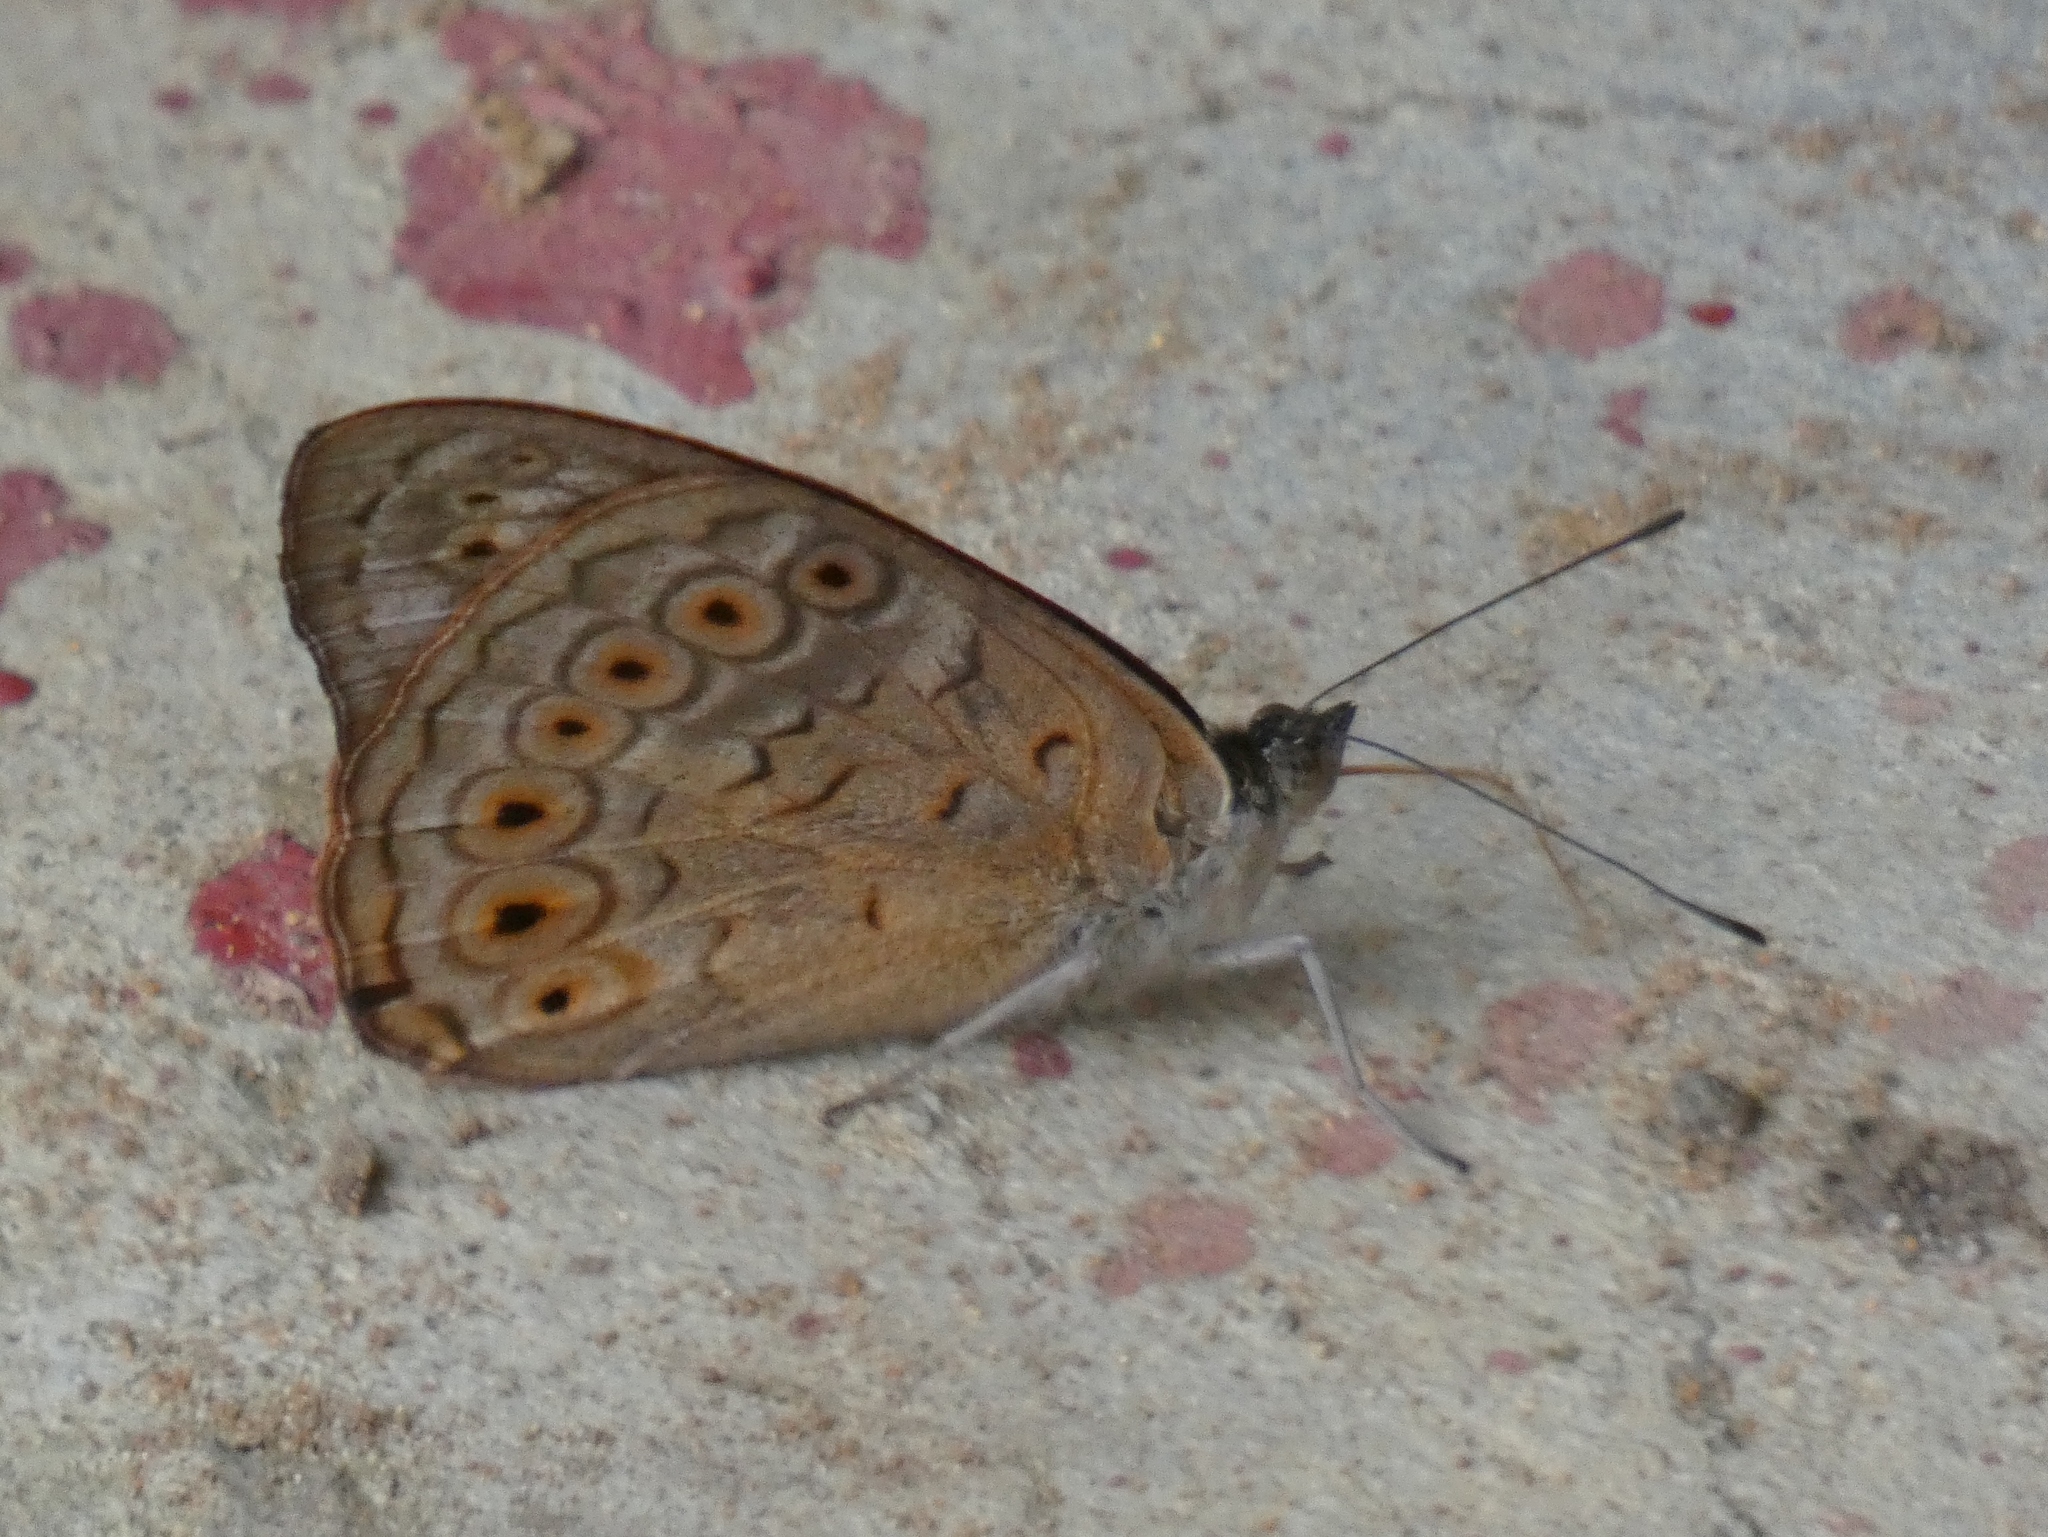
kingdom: Animalia
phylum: Arthropoda
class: Insecta
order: Lepidoptera
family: Nymphalidae
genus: Asterope
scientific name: Asterope occidentalium
